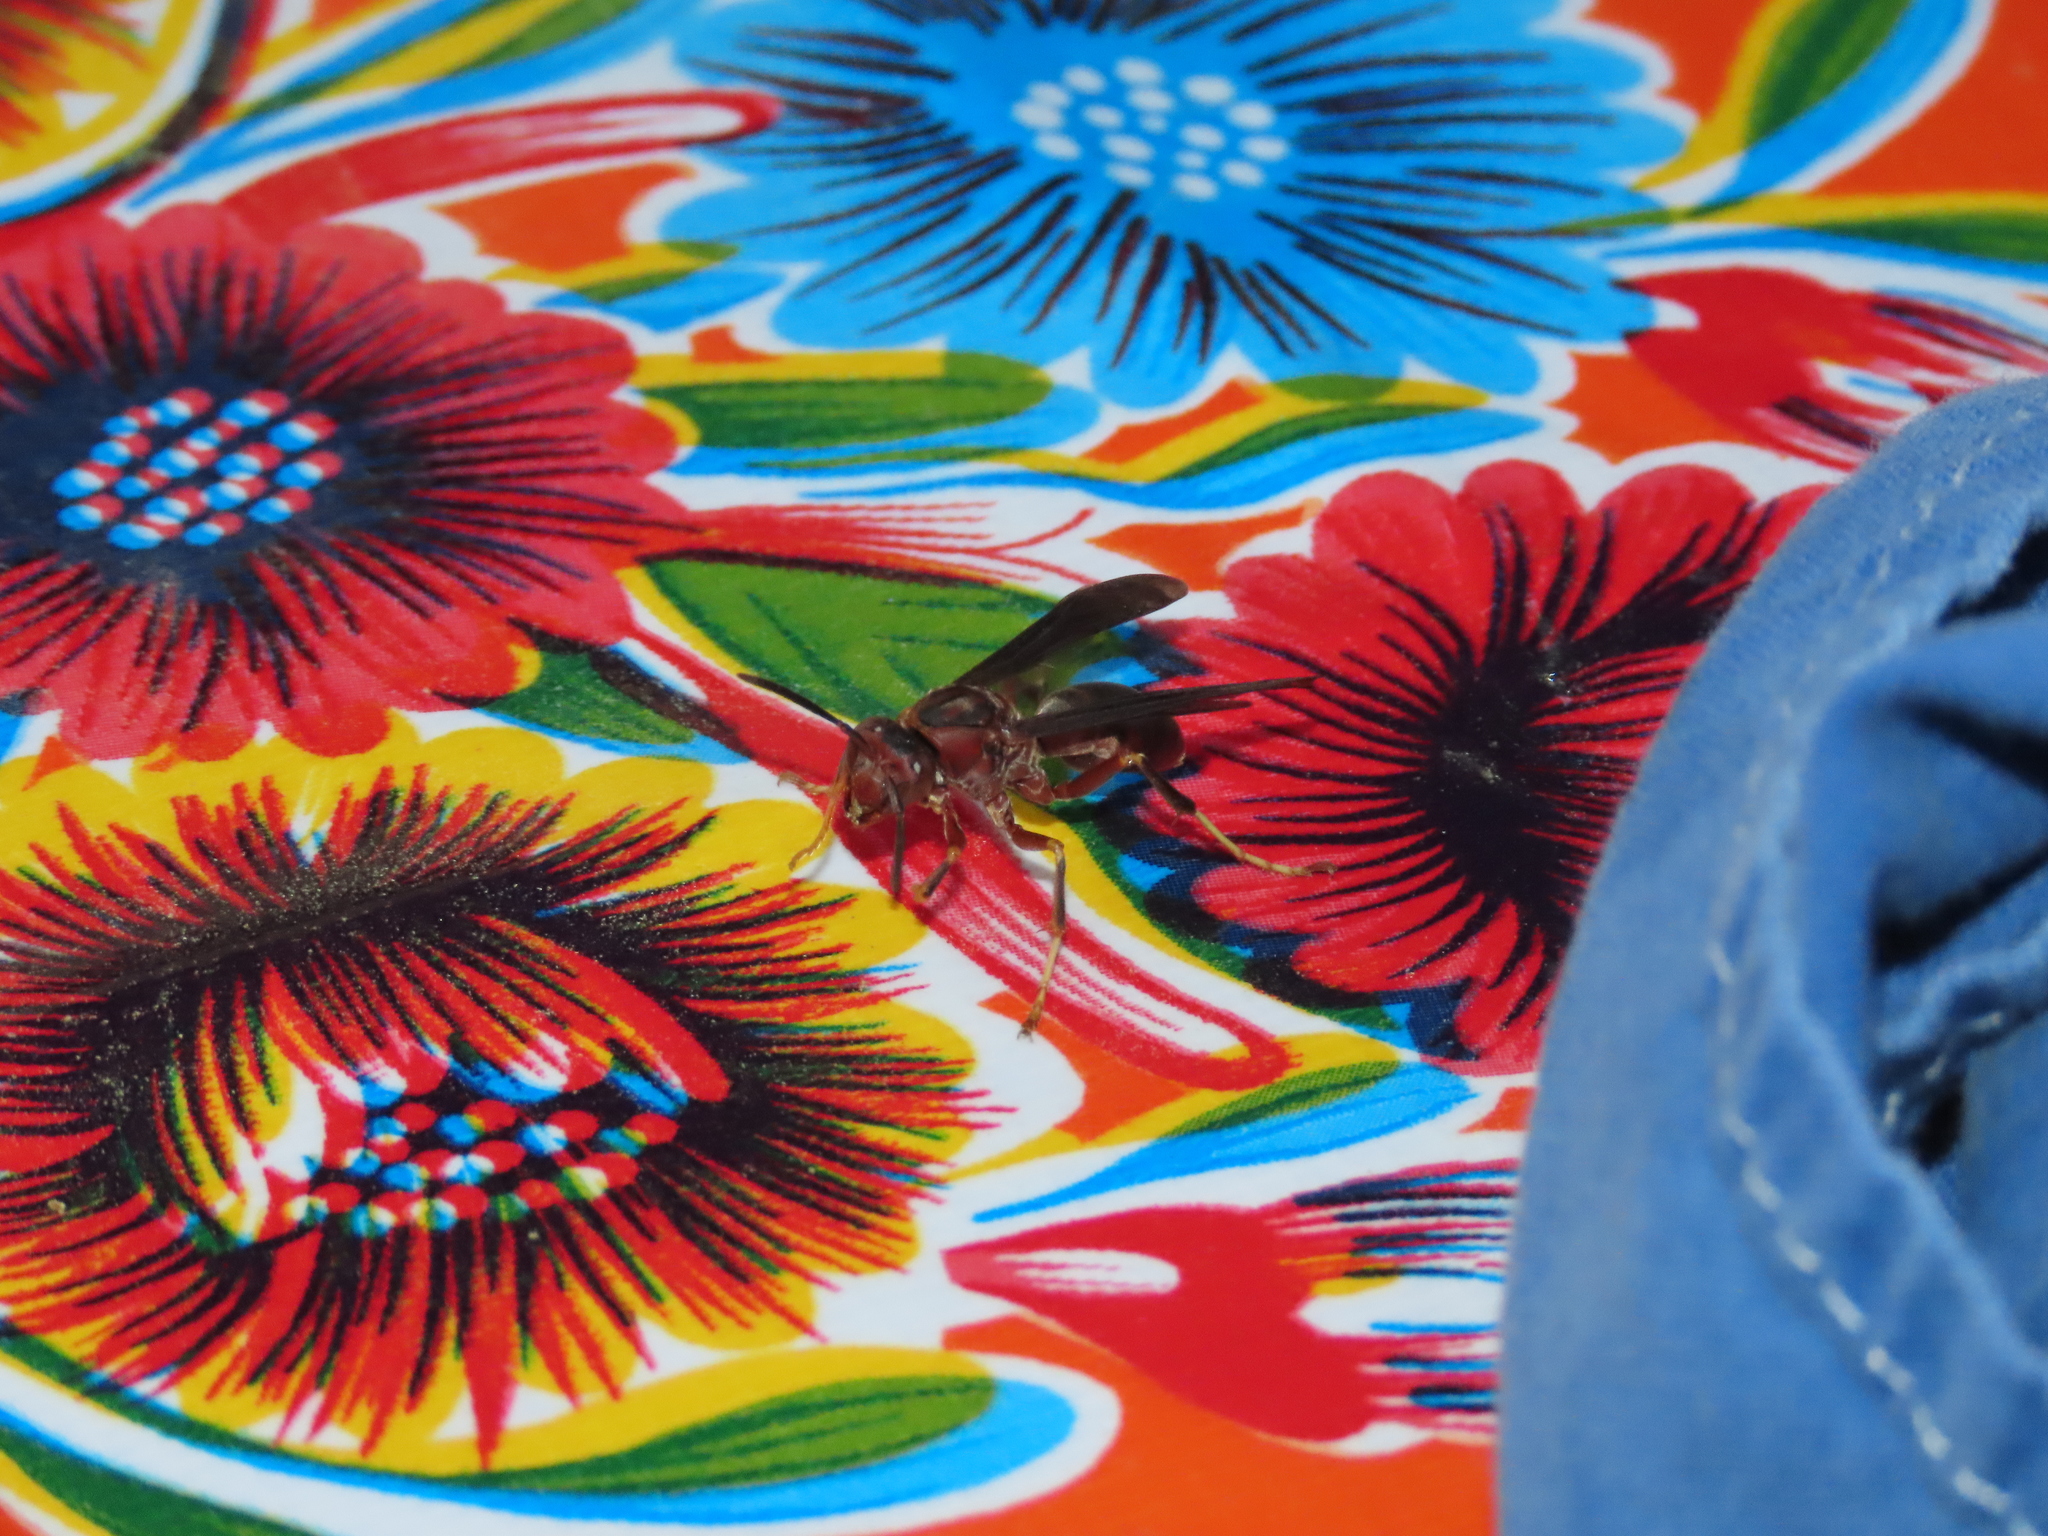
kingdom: Animalia
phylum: Arthropoda
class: Insecta
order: Hymenoptera
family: Eumenidae
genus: Polistes
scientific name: Polistes metricus
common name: Metric paper wasp
